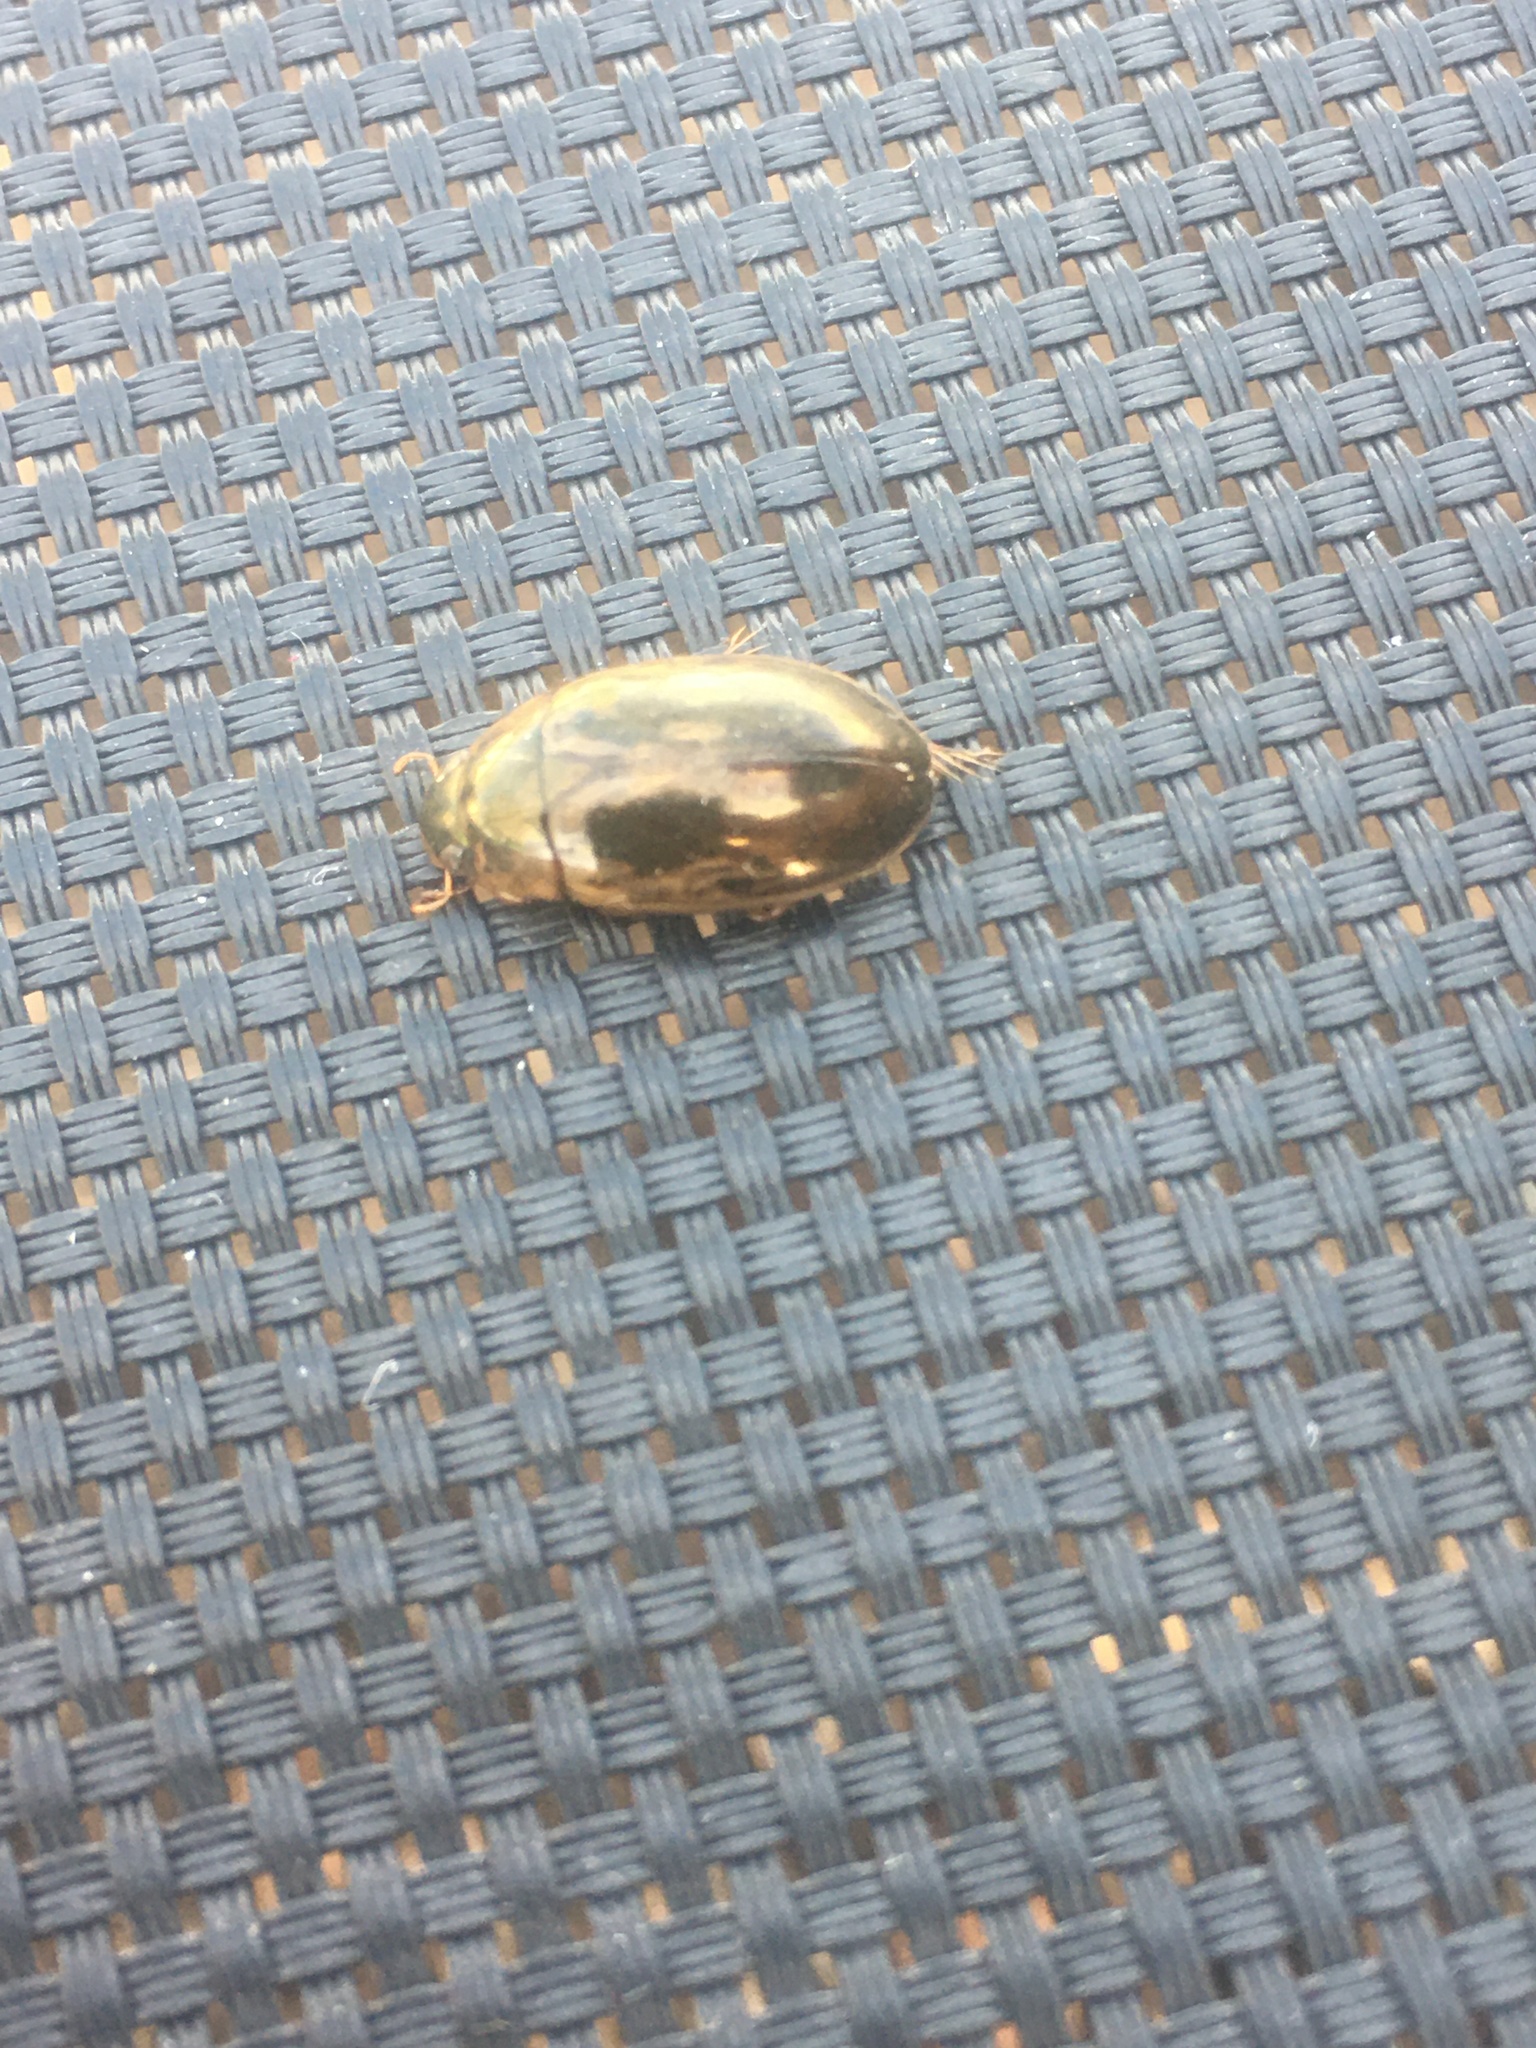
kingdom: Animalia
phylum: Arthropoda
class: Insecta
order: Coleoptera
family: Hydrophilidae
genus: Tropisternus
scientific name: Tropisternus lateralis
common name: Lateral-banded water scavenger beetle
